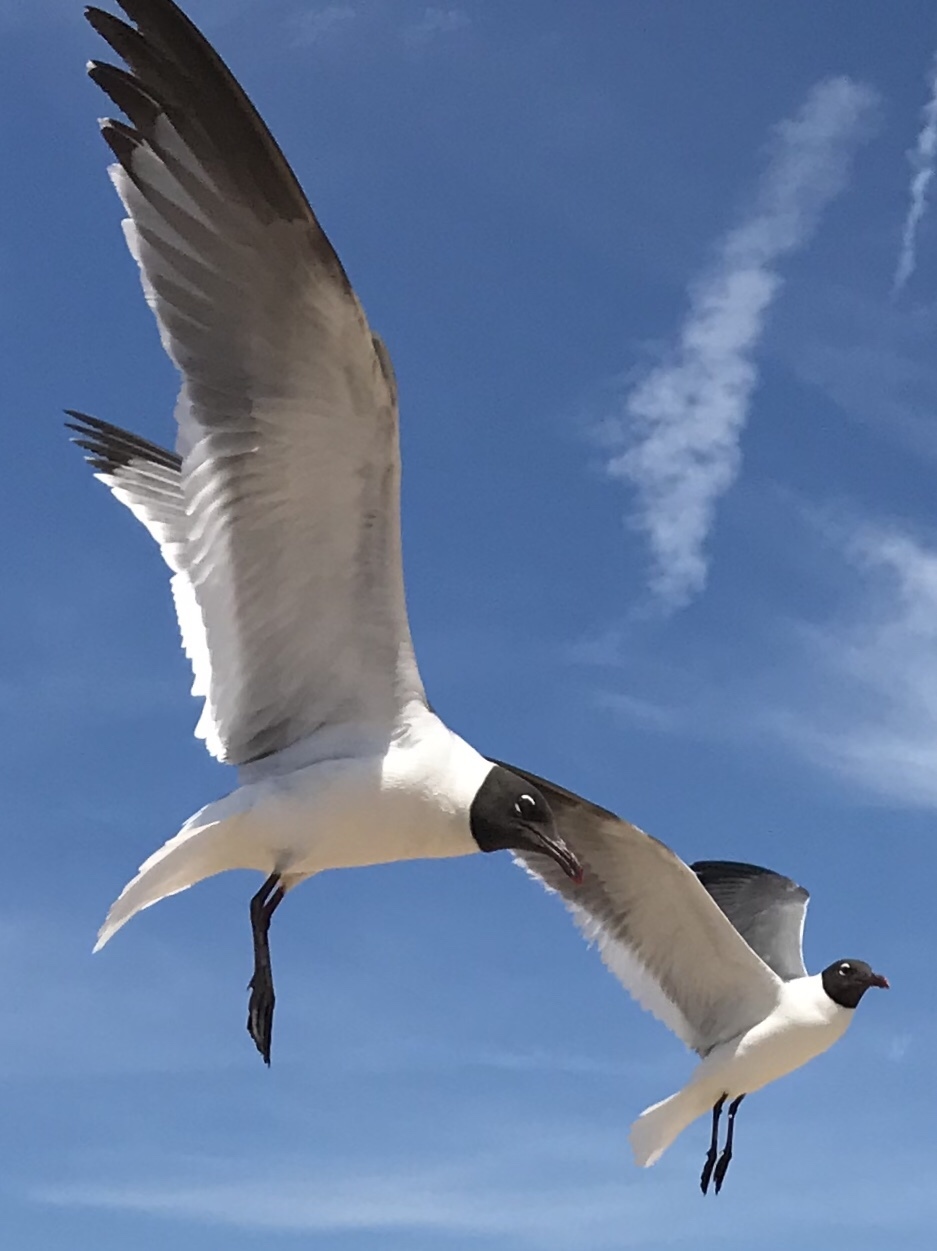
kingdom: Animalia
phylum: Chordata
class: Aves
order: Charadriiformes
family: Laridae
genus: Leucophaeus
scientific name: Leucophaeus atricilla
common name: Laughing gull
